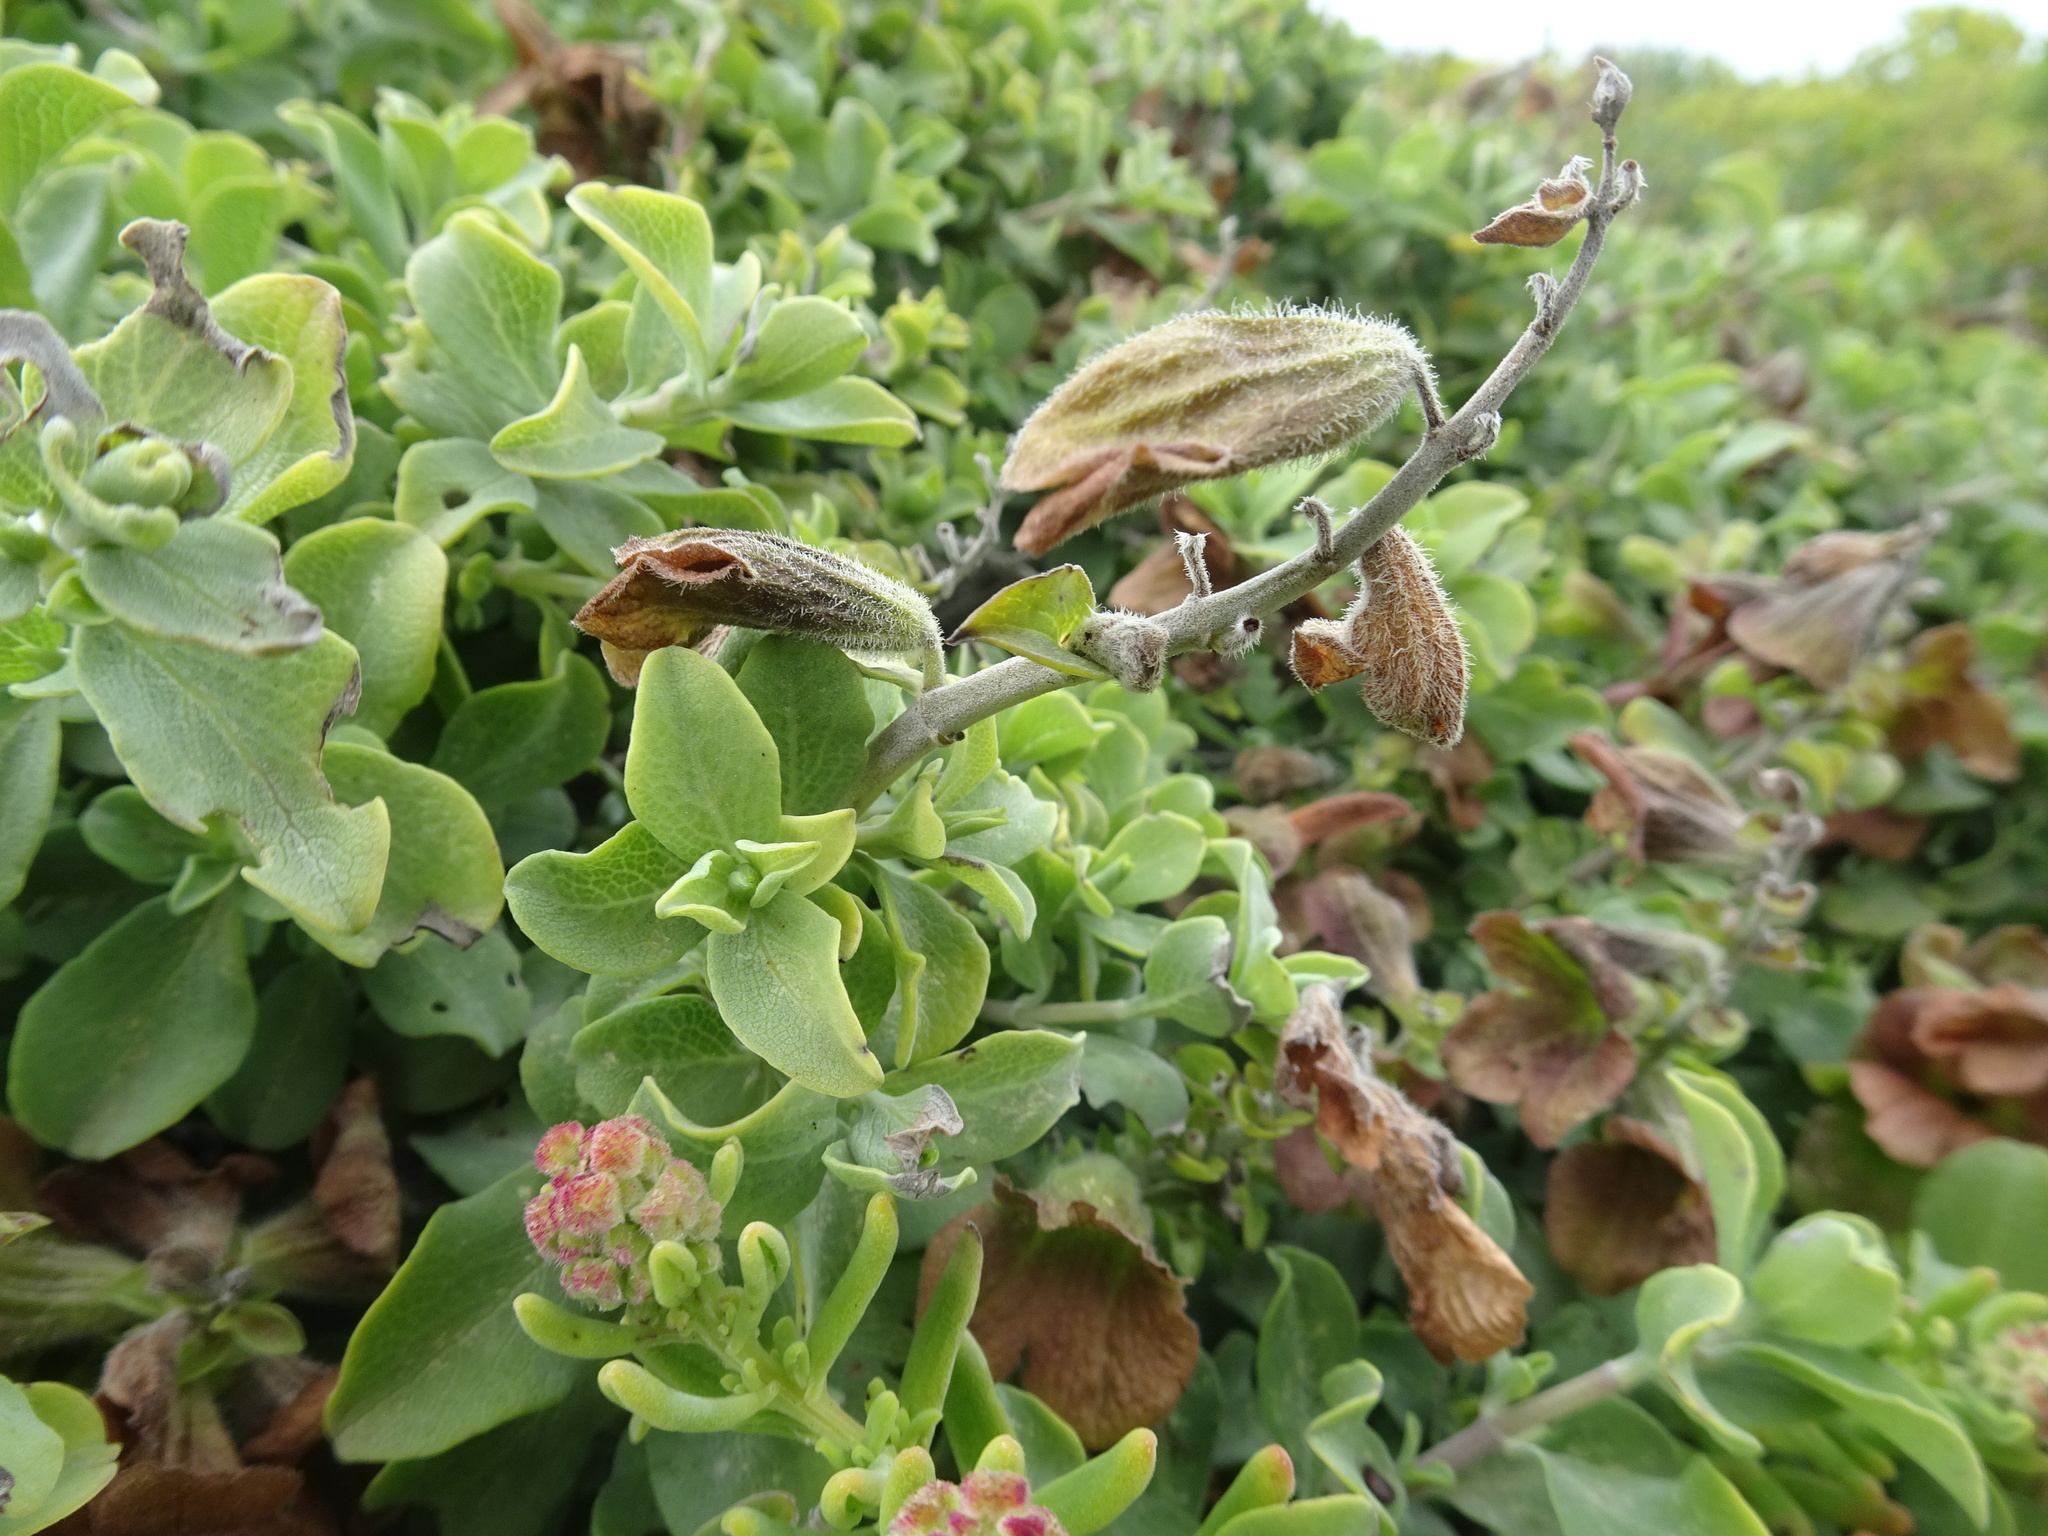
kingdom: Plantae
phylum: Tracheophyta
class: Magnoliopsida
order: Lamiales
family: Lamiaceae
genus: Salvia
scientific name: Salvia aurea
